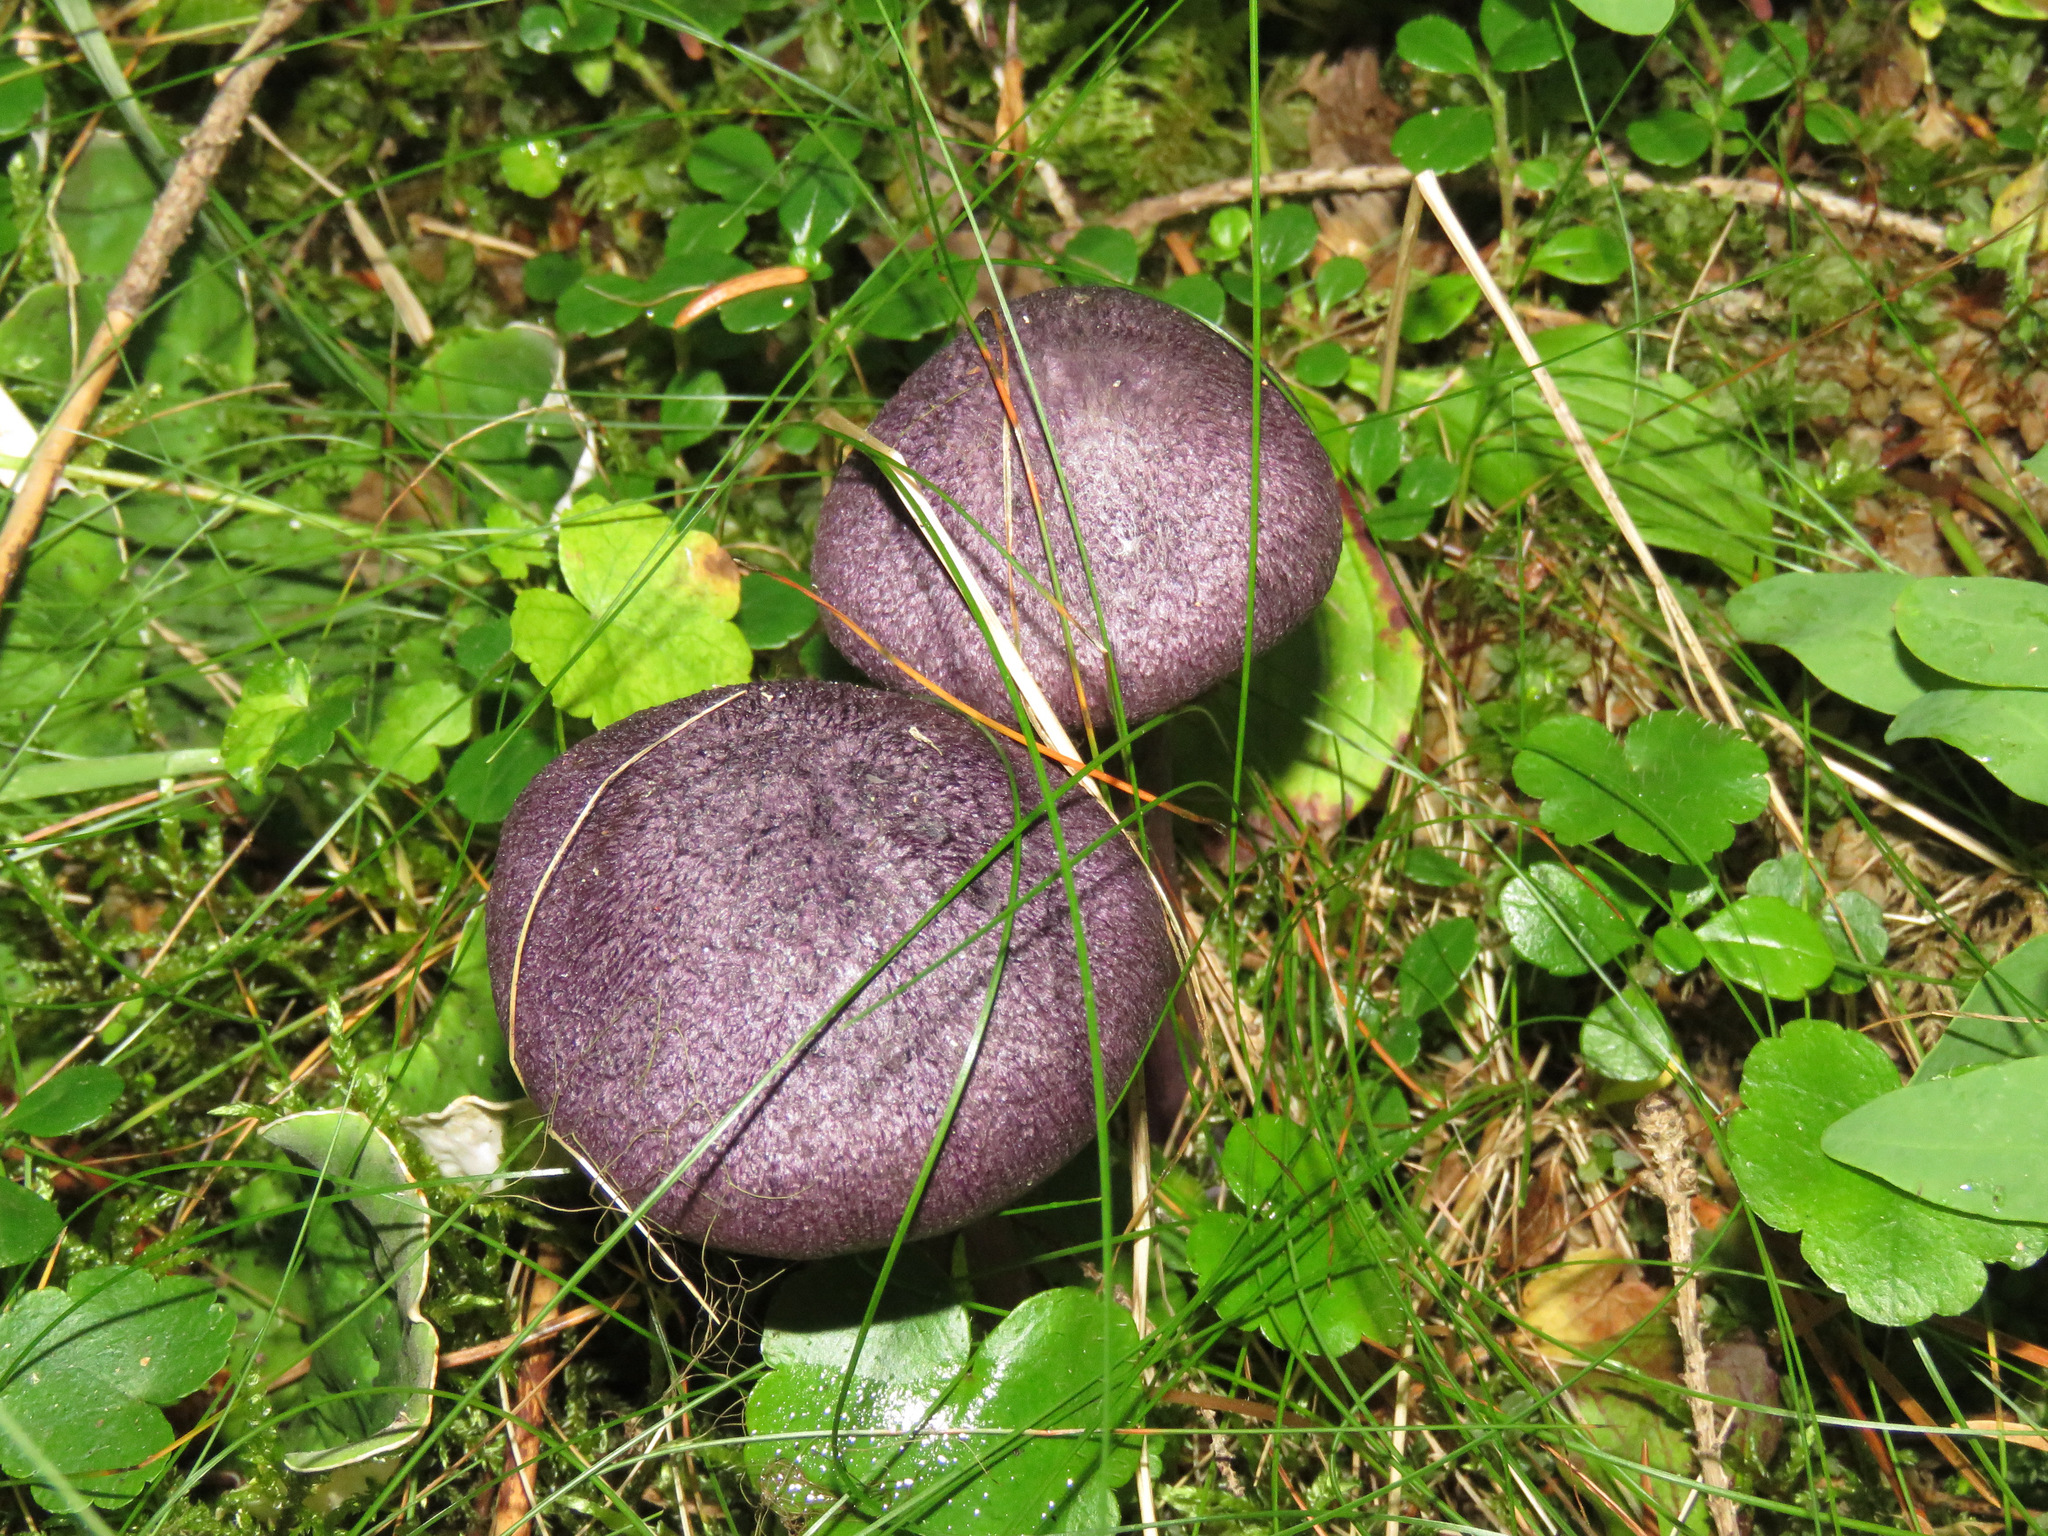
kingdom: Fungi
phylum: Basidiomycota
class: Agaricomycetes
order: Agaricales
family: Cortinariaceae
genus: Cortinarius
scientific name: Cortinarius violaceus
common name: Violet webcap
